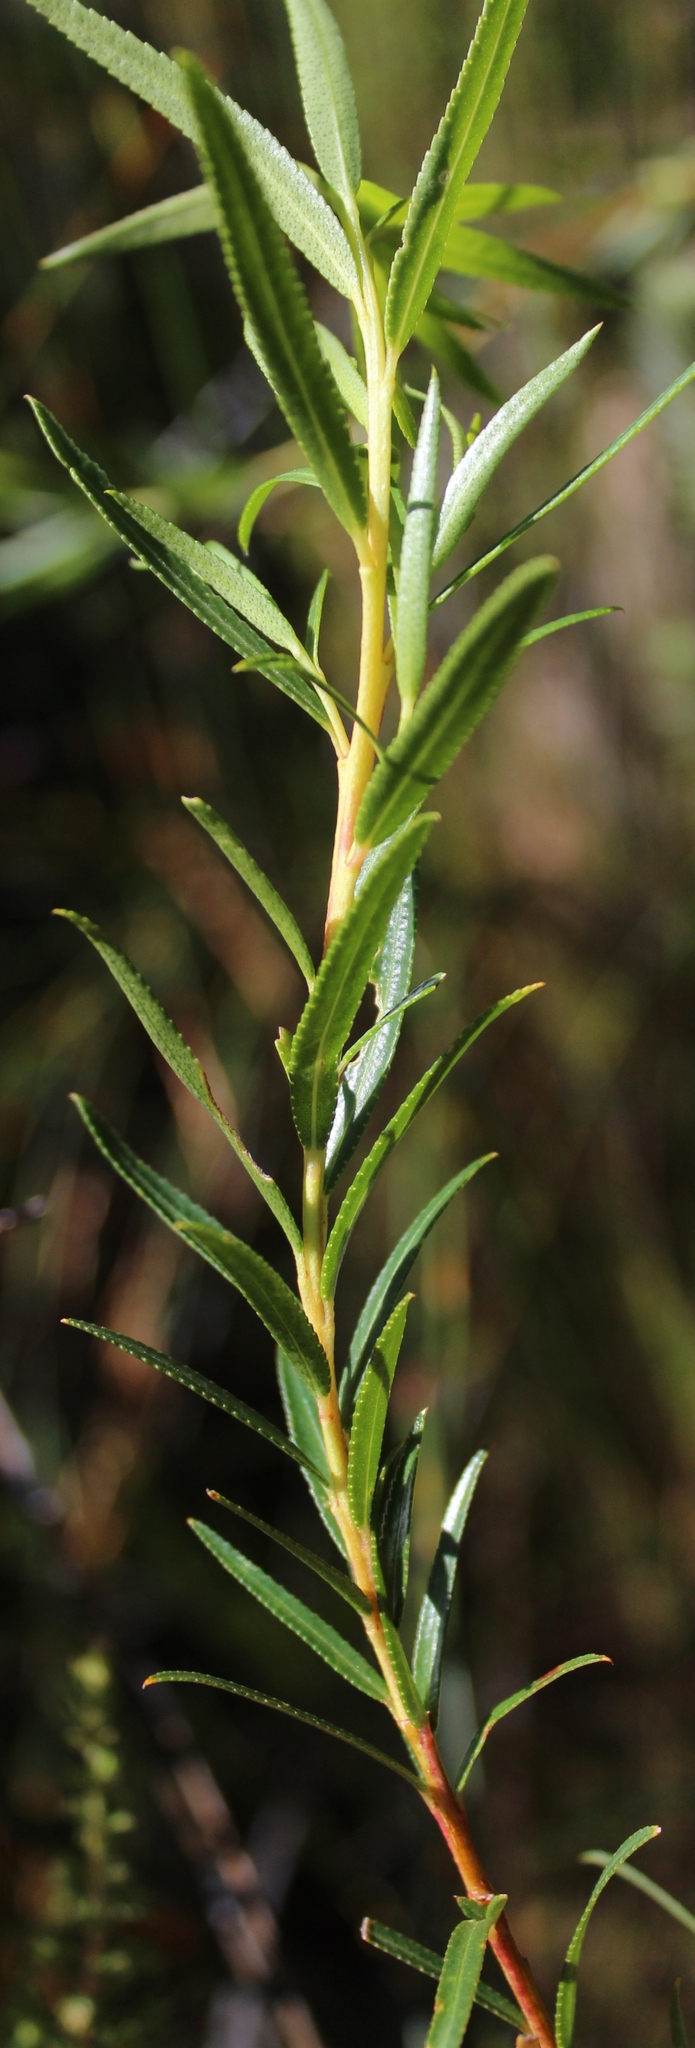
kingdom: Plantae
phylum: Tracheophyta
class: Magnoliopsida
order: Sapindales
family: Rutaceae
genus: Agathosma
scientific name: Agathosma serratifolia
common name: Longleaf buchu
